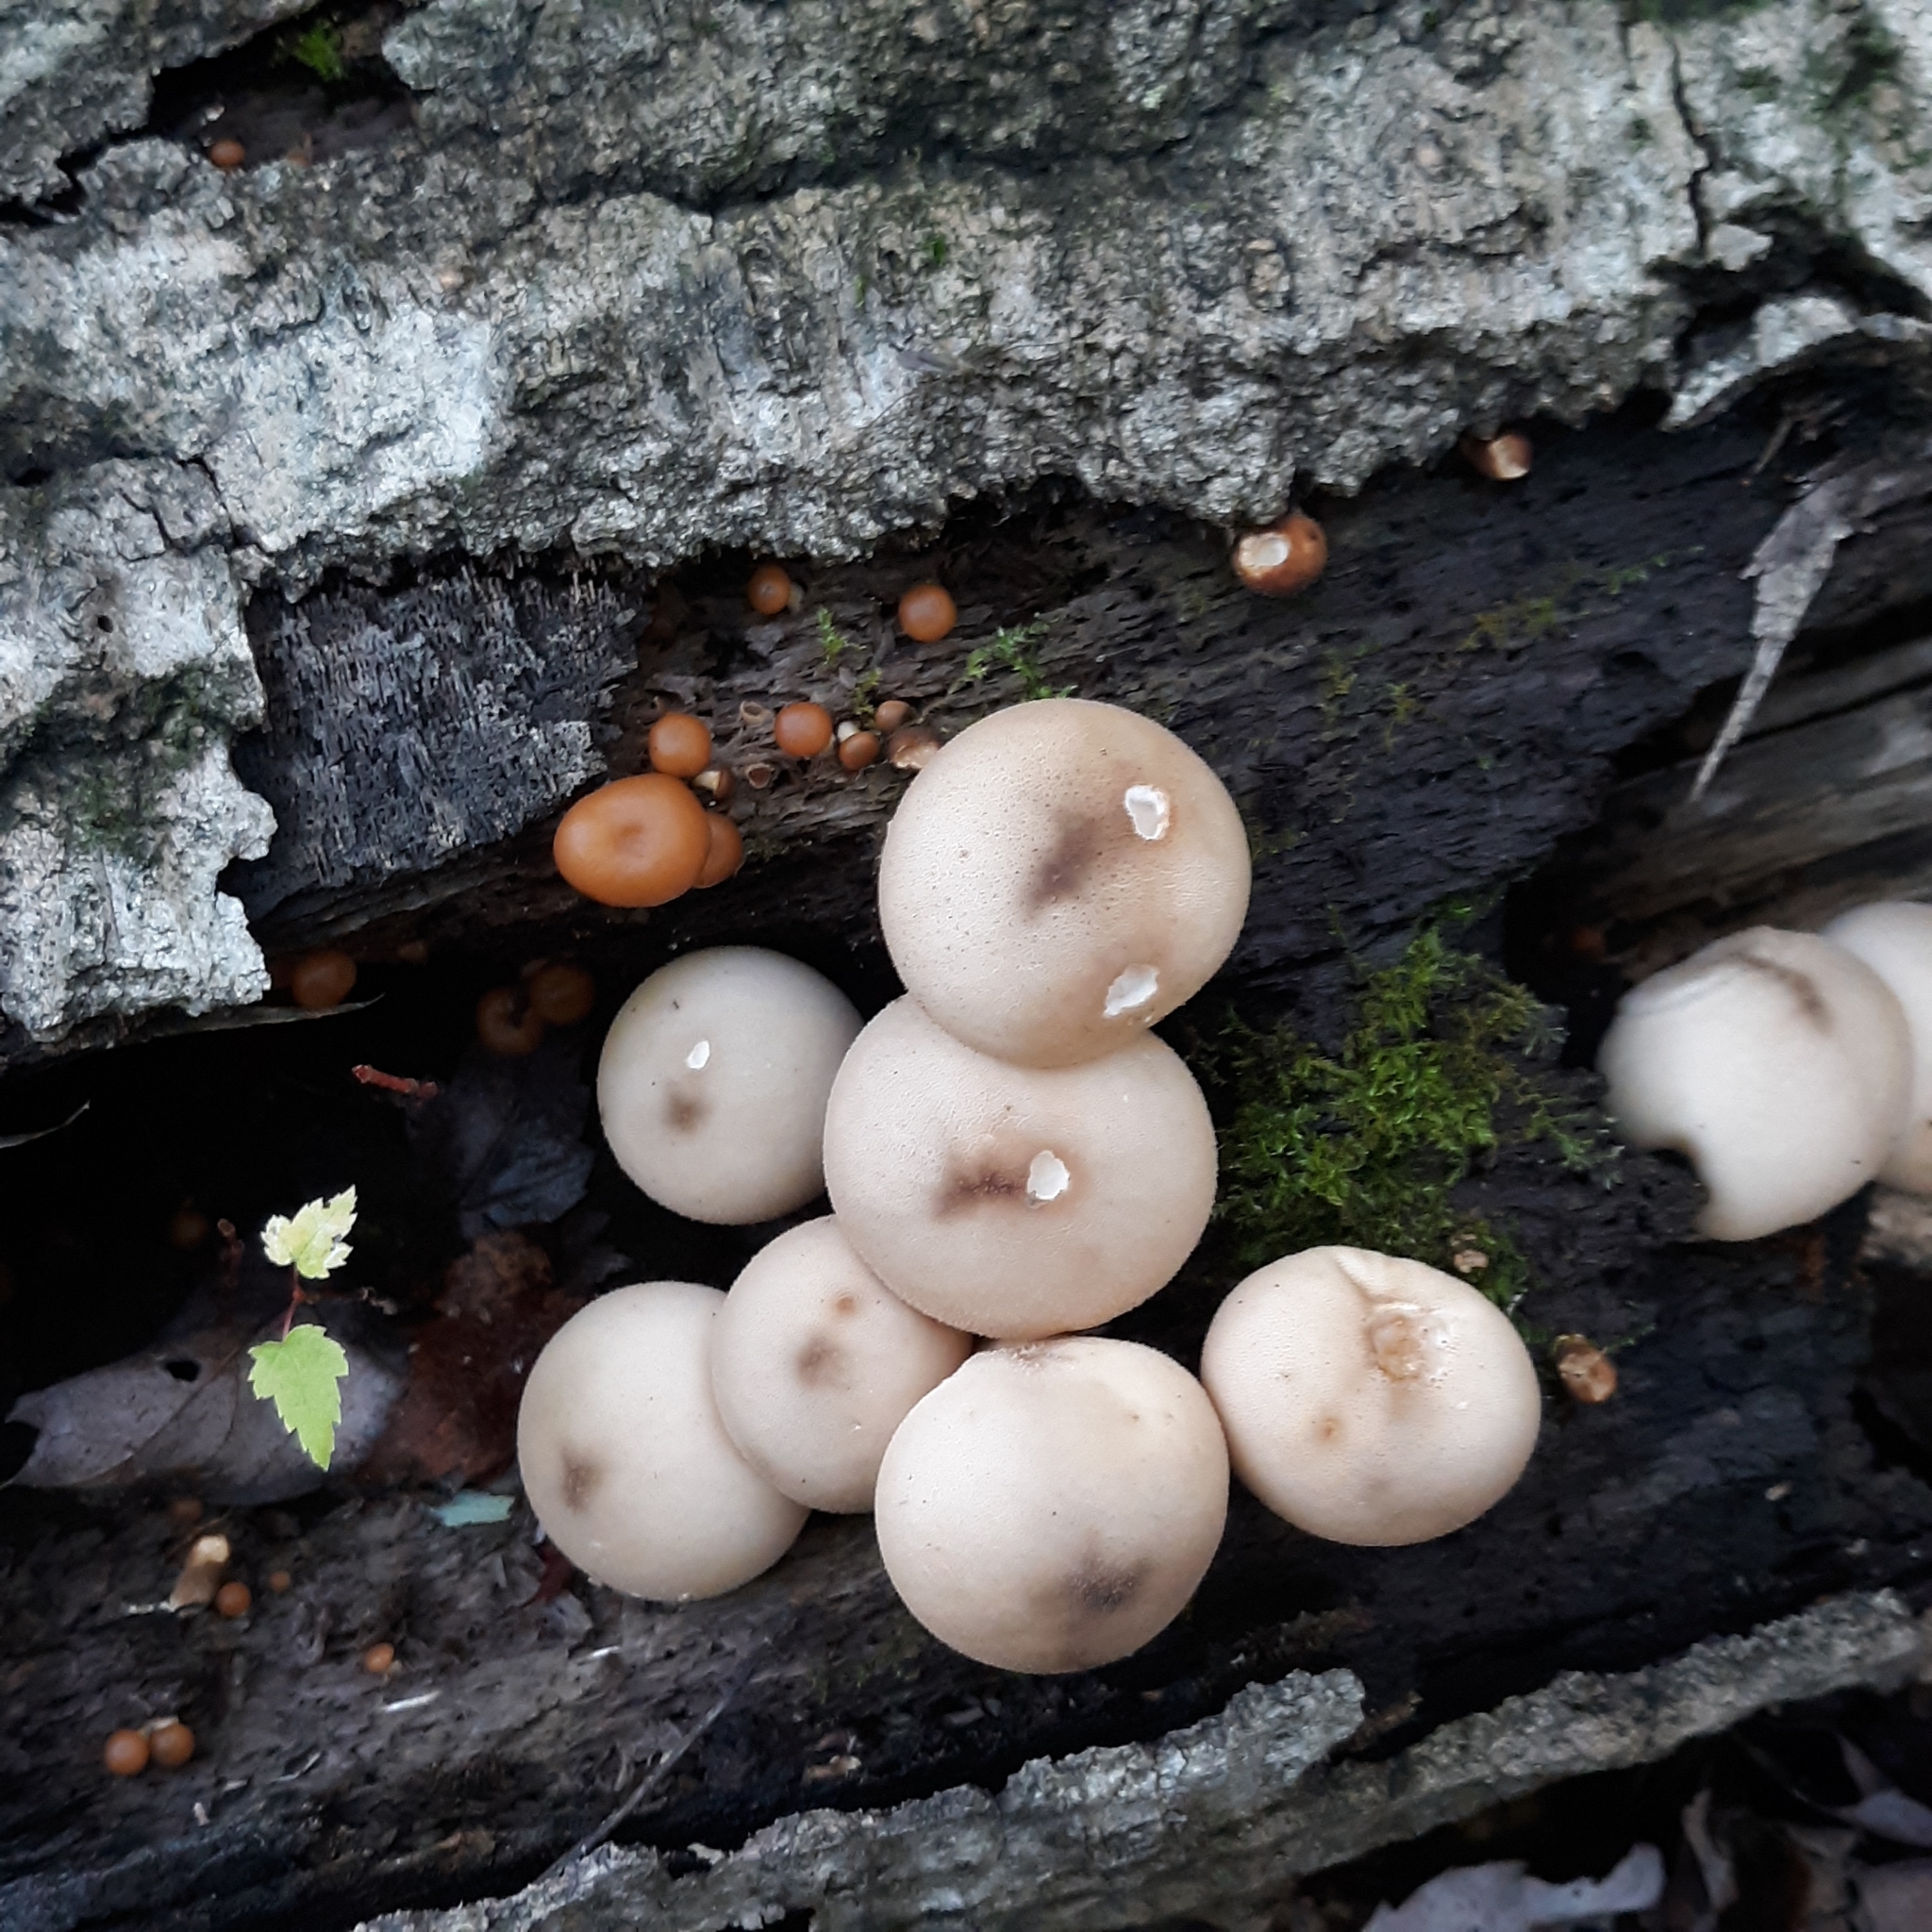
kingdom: Fungi
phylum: Basidiomycota
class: Agaricomycetes
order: Agaricales
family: Lycoperdaceae
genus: Apioperdon
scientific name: Apioperdon pyriforme
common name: Pear-shaped puffball
